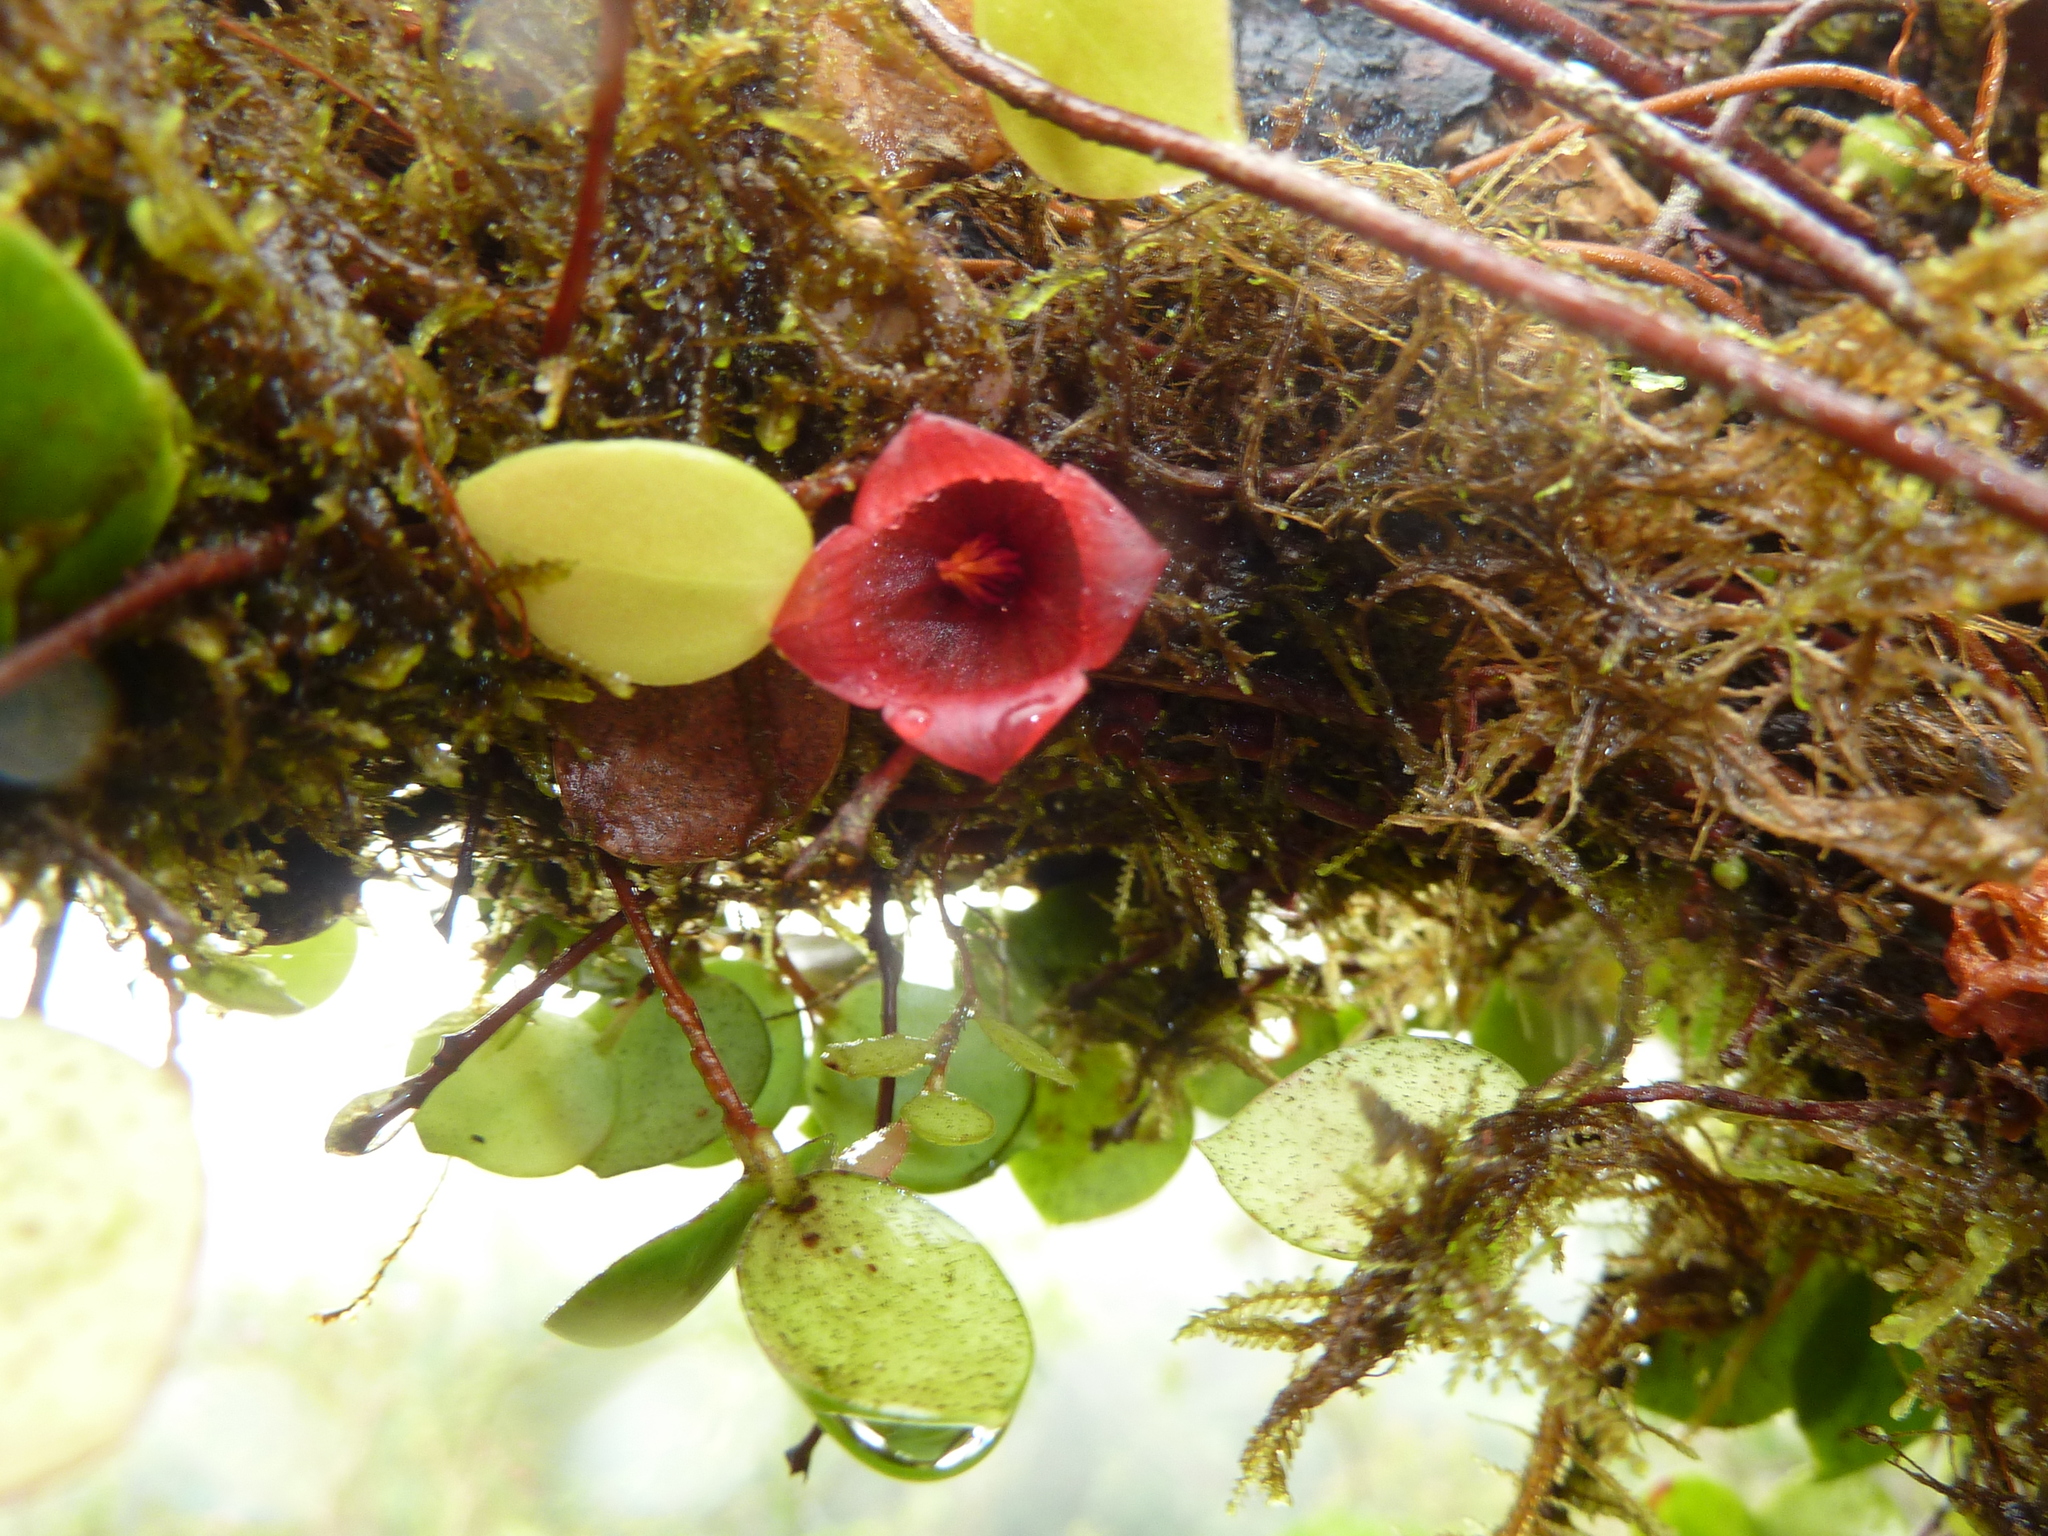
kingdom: Plantae
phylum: Tracheophyta
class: Magnoliopsida
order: Ericales
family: Ericaceae
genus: Sphyrospermum
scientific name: Sphyrospermum dissimile
